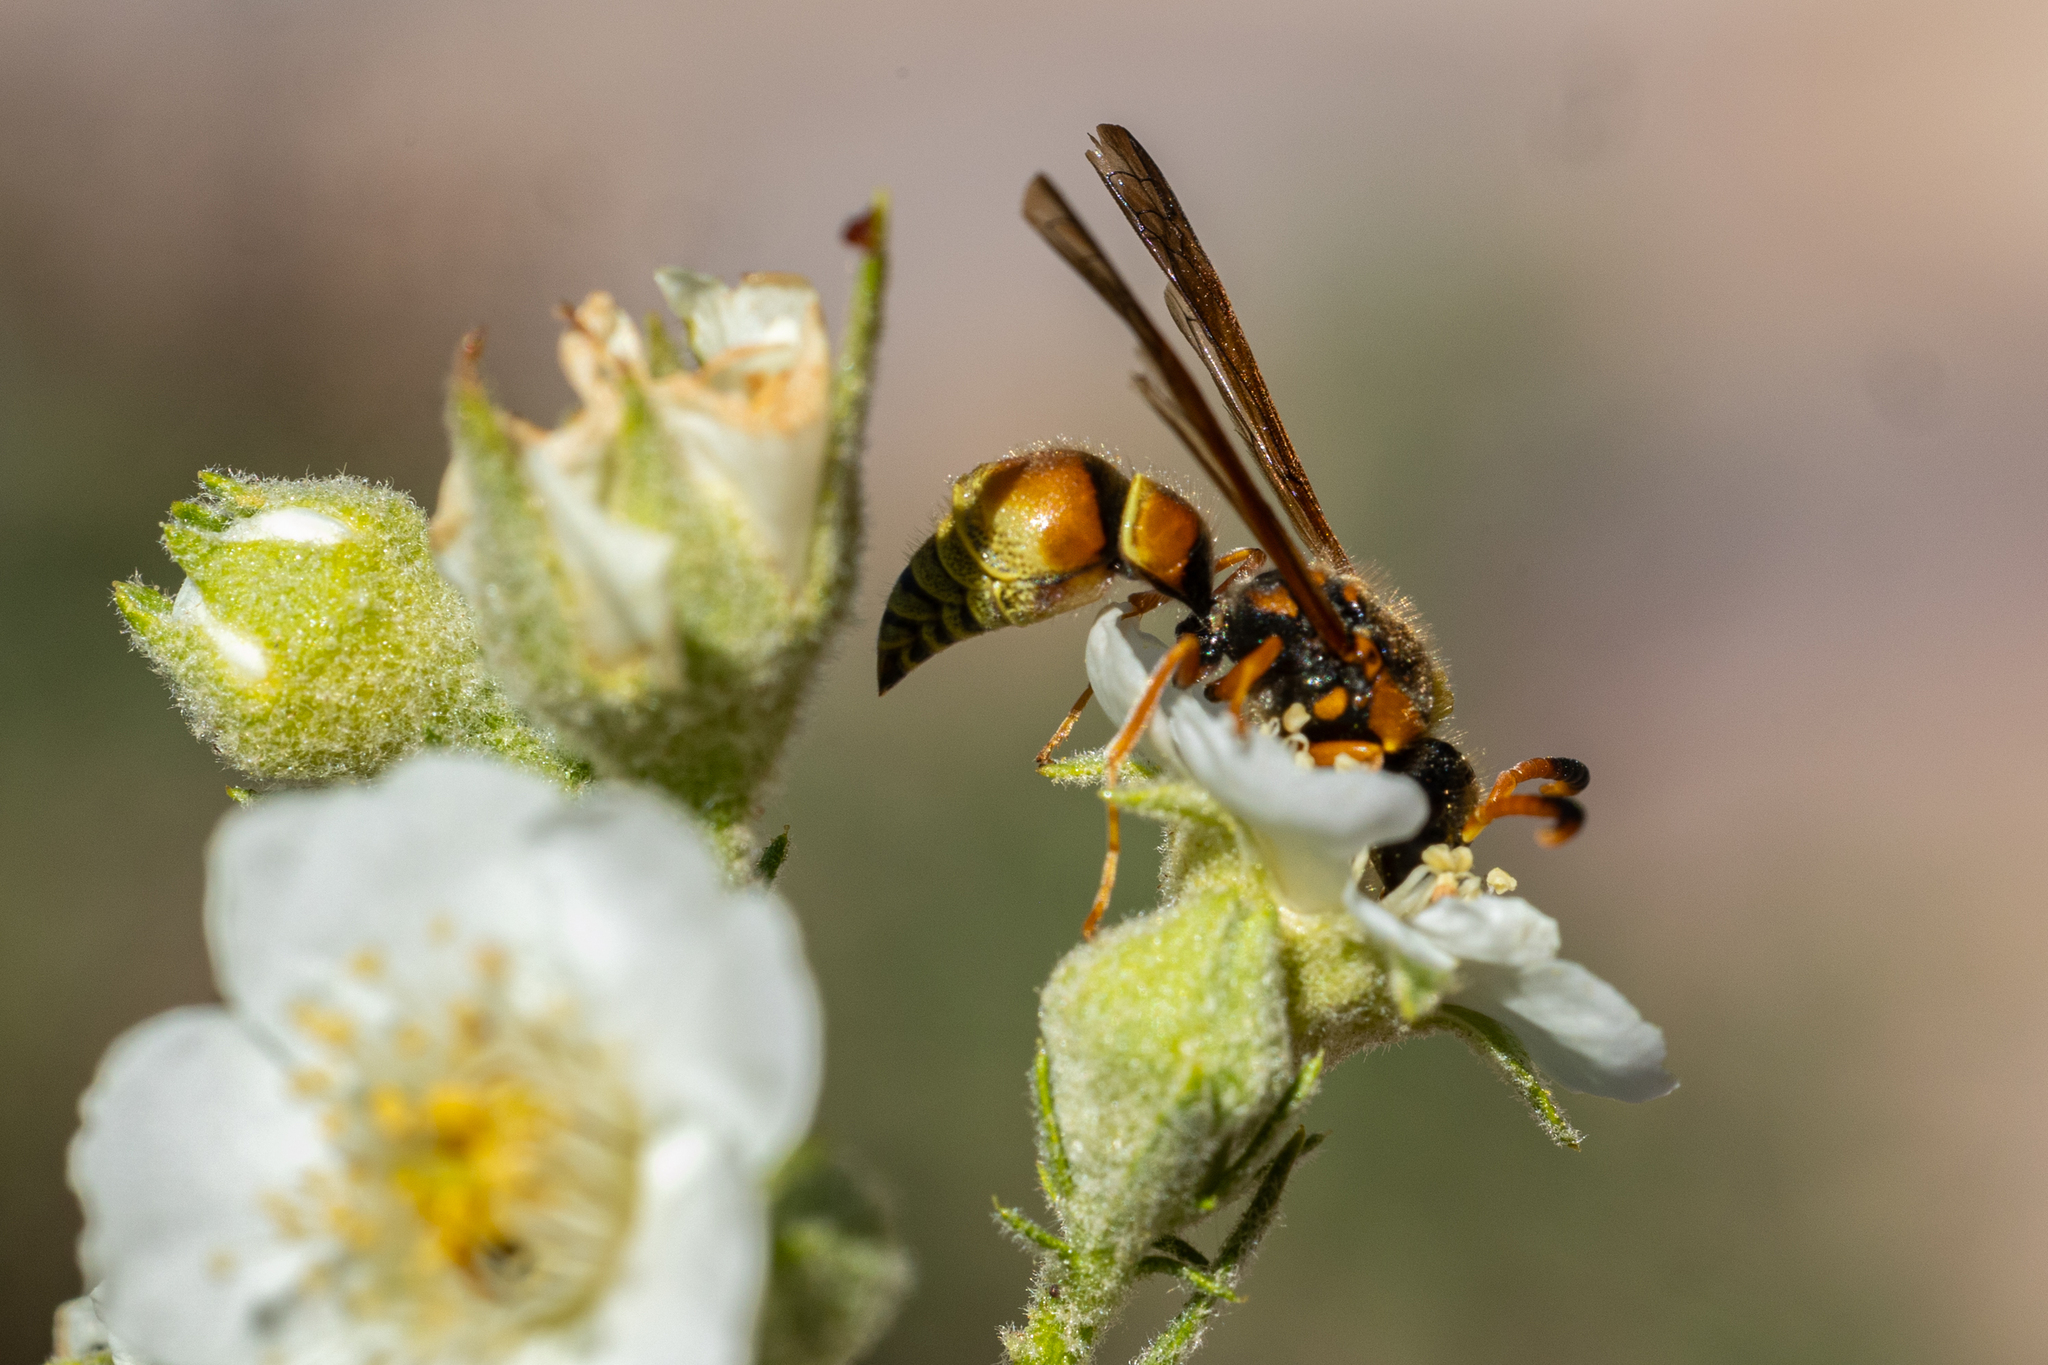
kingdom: Animalia
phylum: Arthropoda
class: Insecta
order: Hymenoptera
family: Vespidae
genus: Ancistrocerus
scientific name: Ancistrocerus lineativentris
